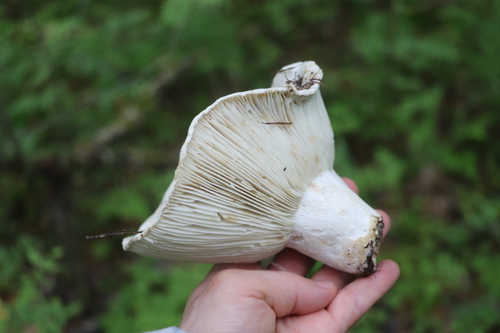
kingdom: Fungi
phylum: Basidiomycota
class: Agaricomycetes
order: Russulales
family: Russulaceae
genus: Russula
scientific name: Russula delica
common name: Milk white brittlegill
